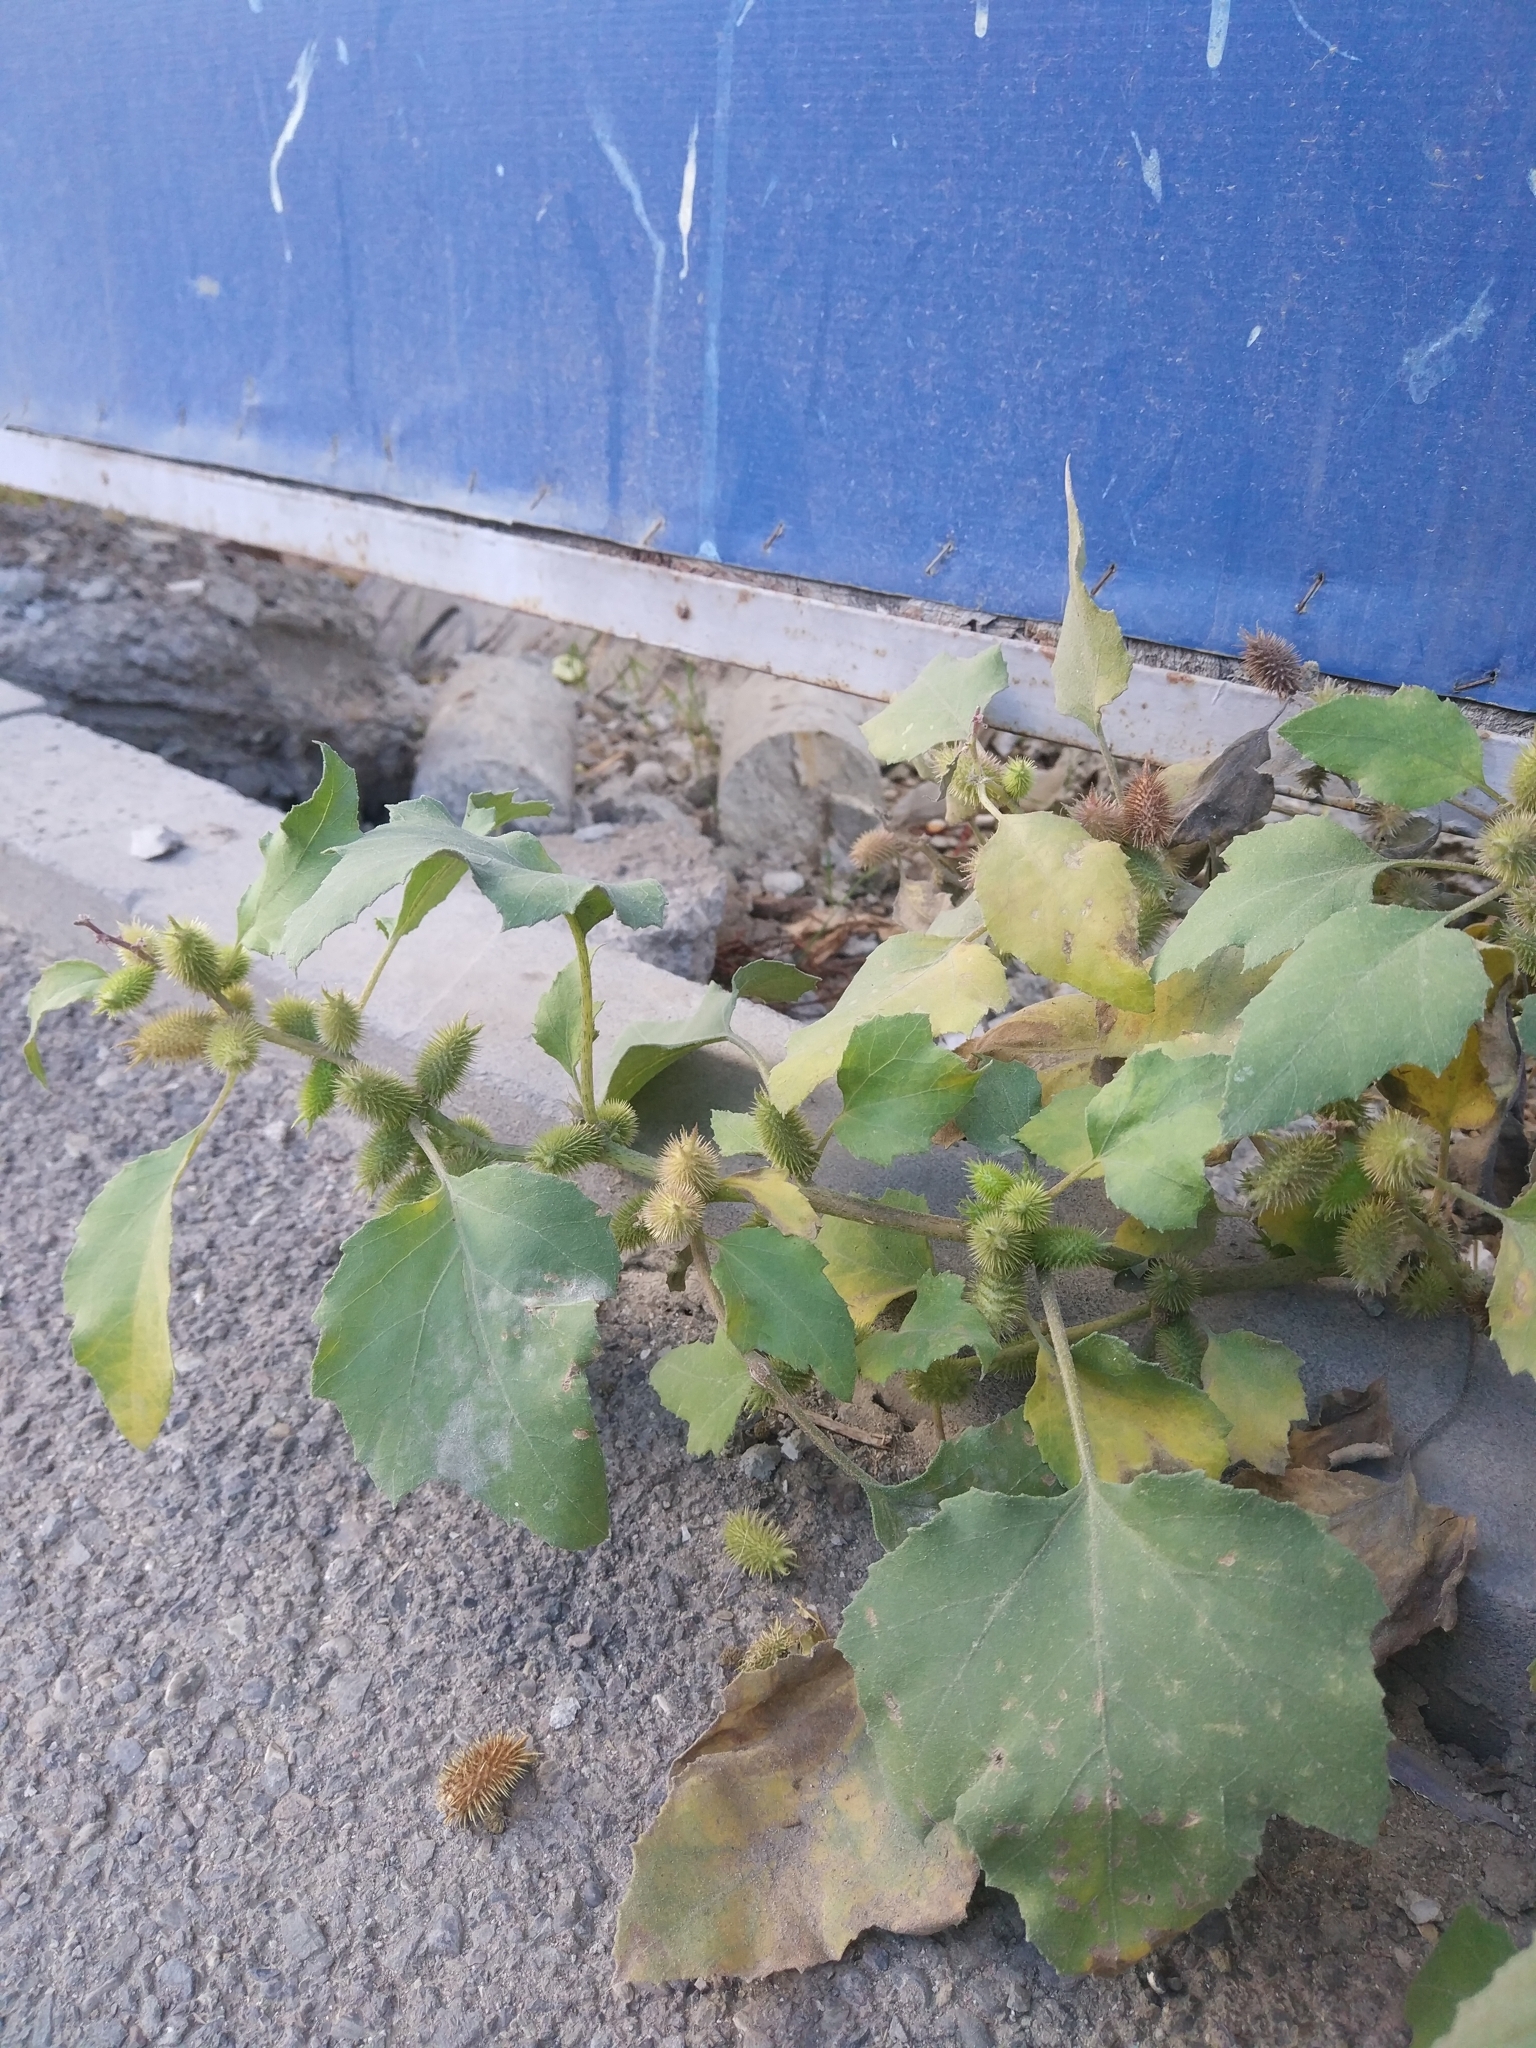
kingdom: Plantae
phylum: Tracheophyta
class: Magnoliopsida
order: Asterales
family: Asteraceae
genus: Xanthium
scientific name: Xanthium strumarium
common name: Rough cocklebur
